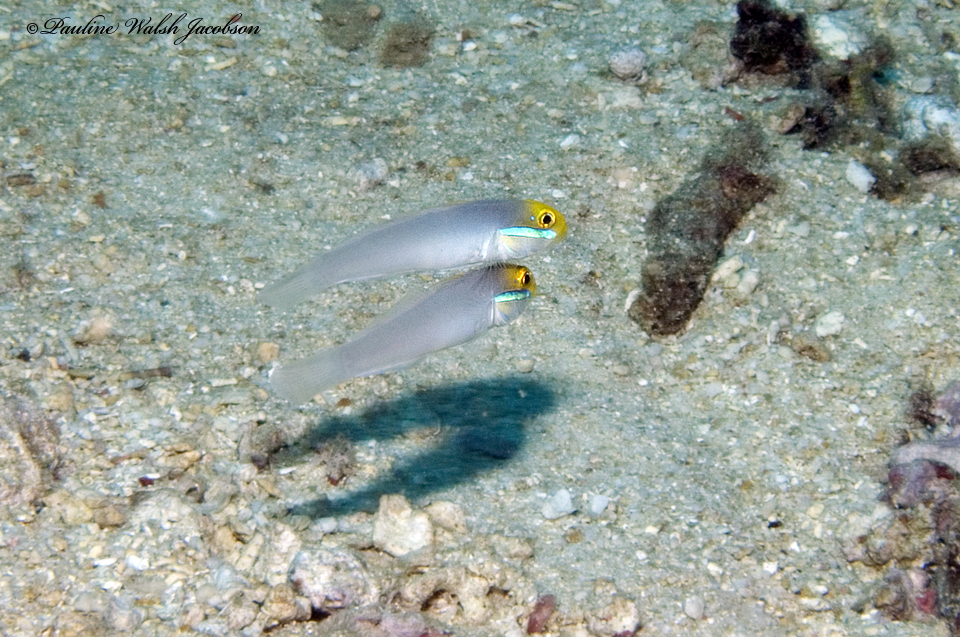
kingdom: Animalia
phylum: Chordata
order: Perciformes
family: Gobiidae
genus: Valenciennea
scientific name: Valenciennea strigata
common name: Blueband goby
